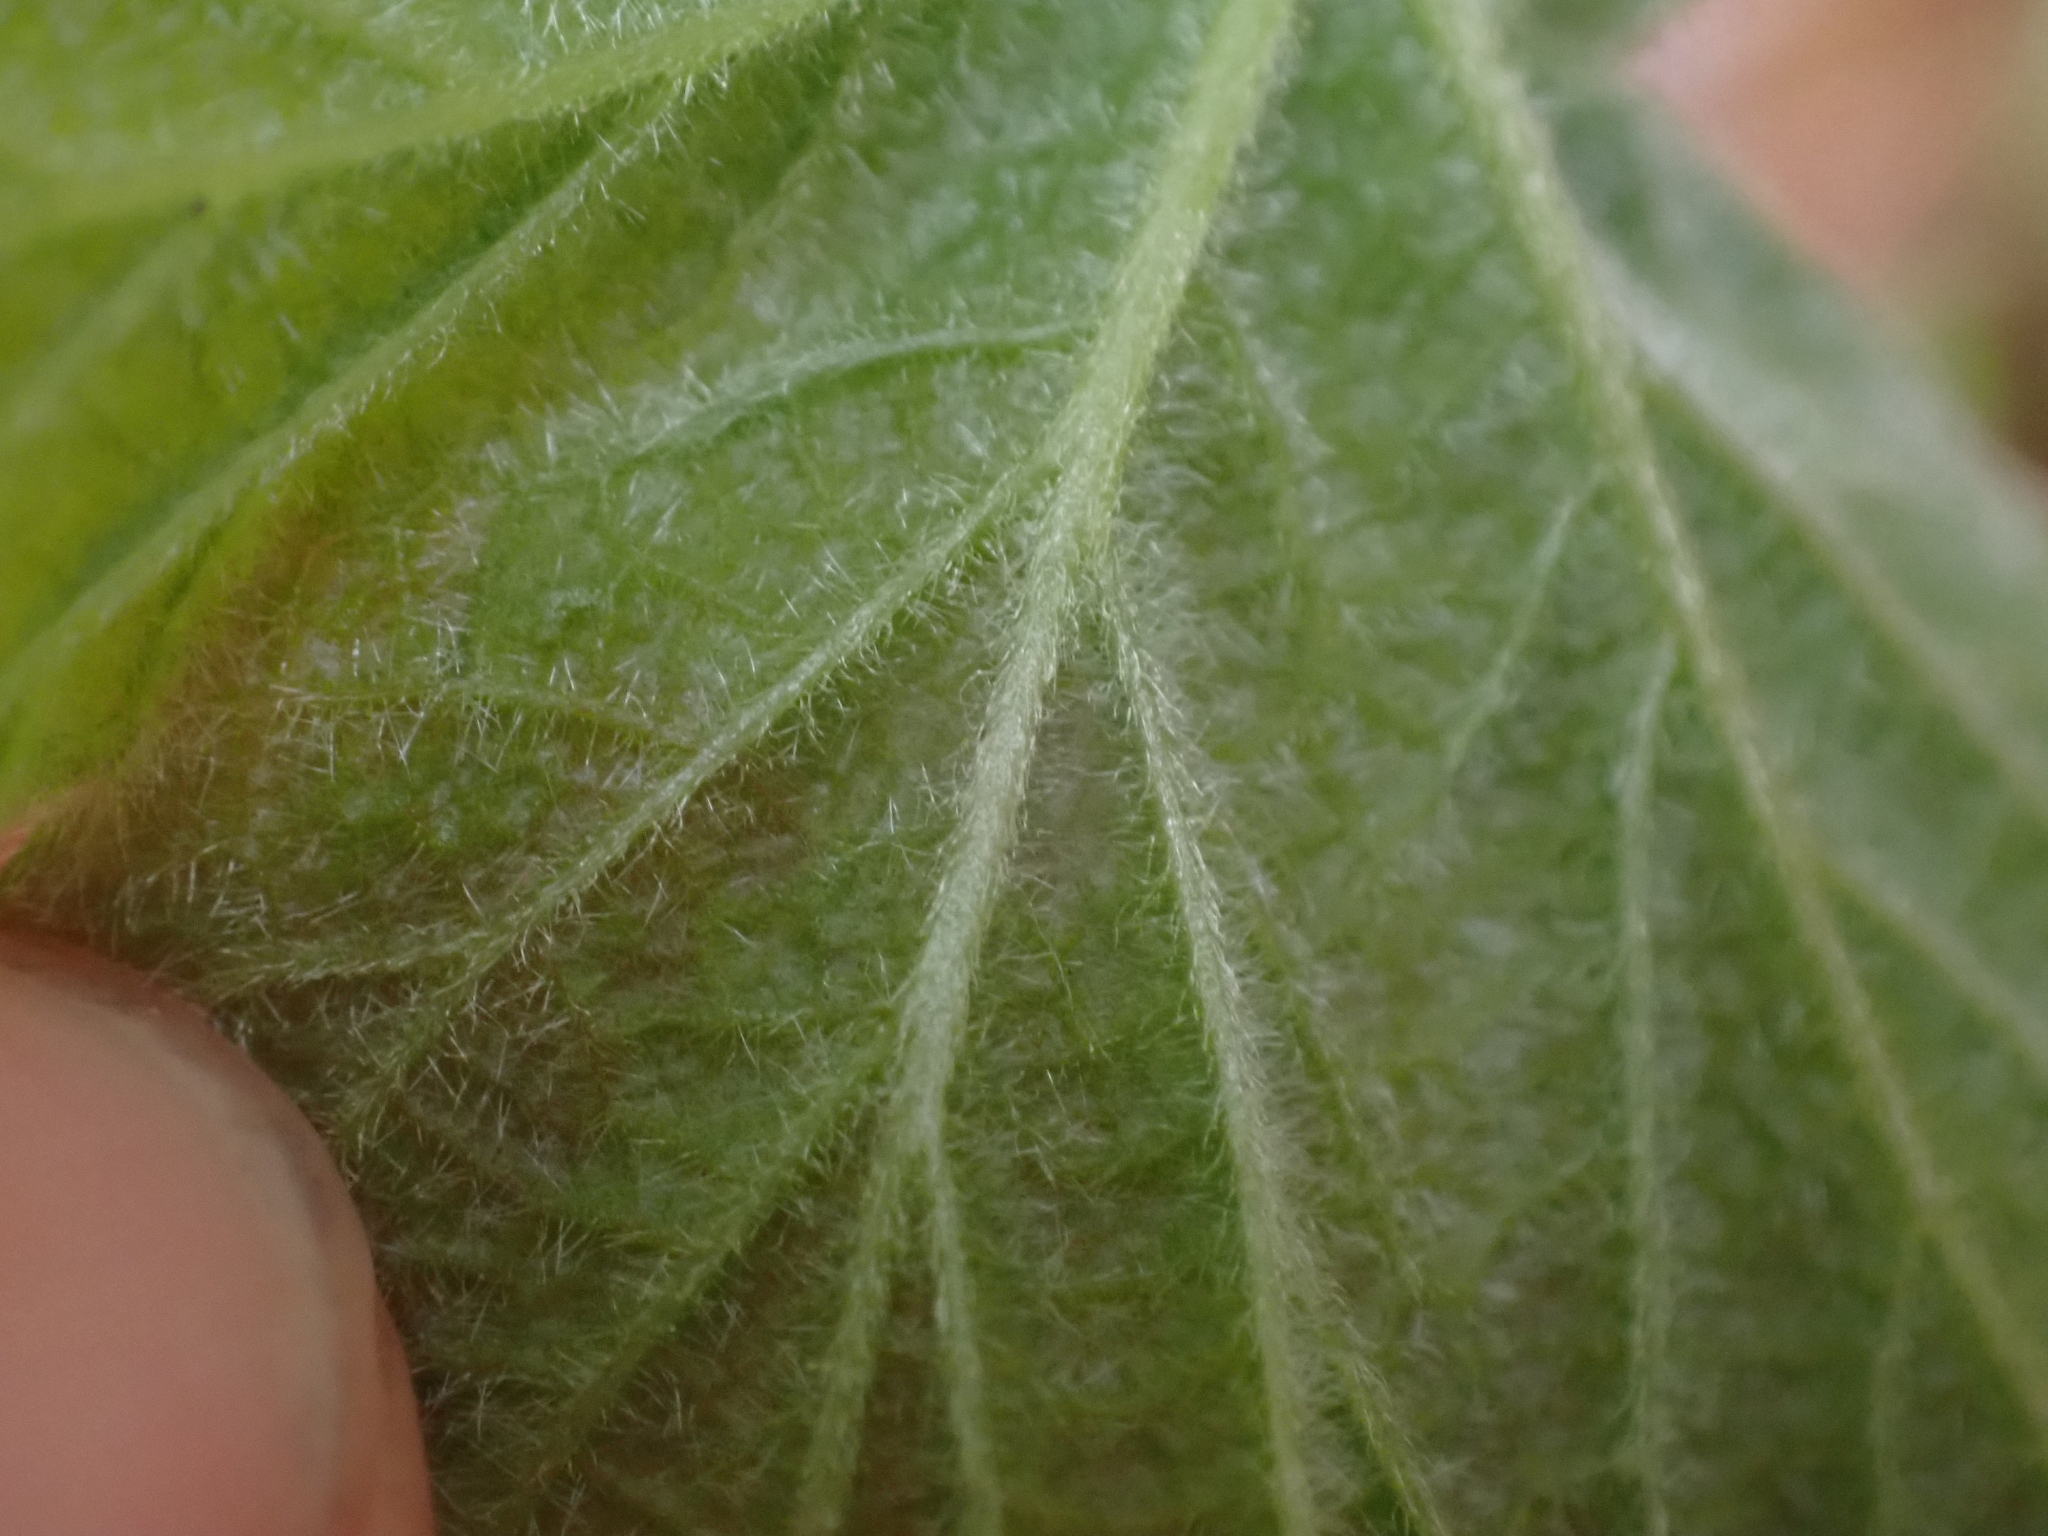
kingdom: Plantae
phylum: Tracheophyta
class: Magnoliopsida
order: Rosales
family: Rosaceae
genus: Rubus
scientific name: Rubus parviflorus
